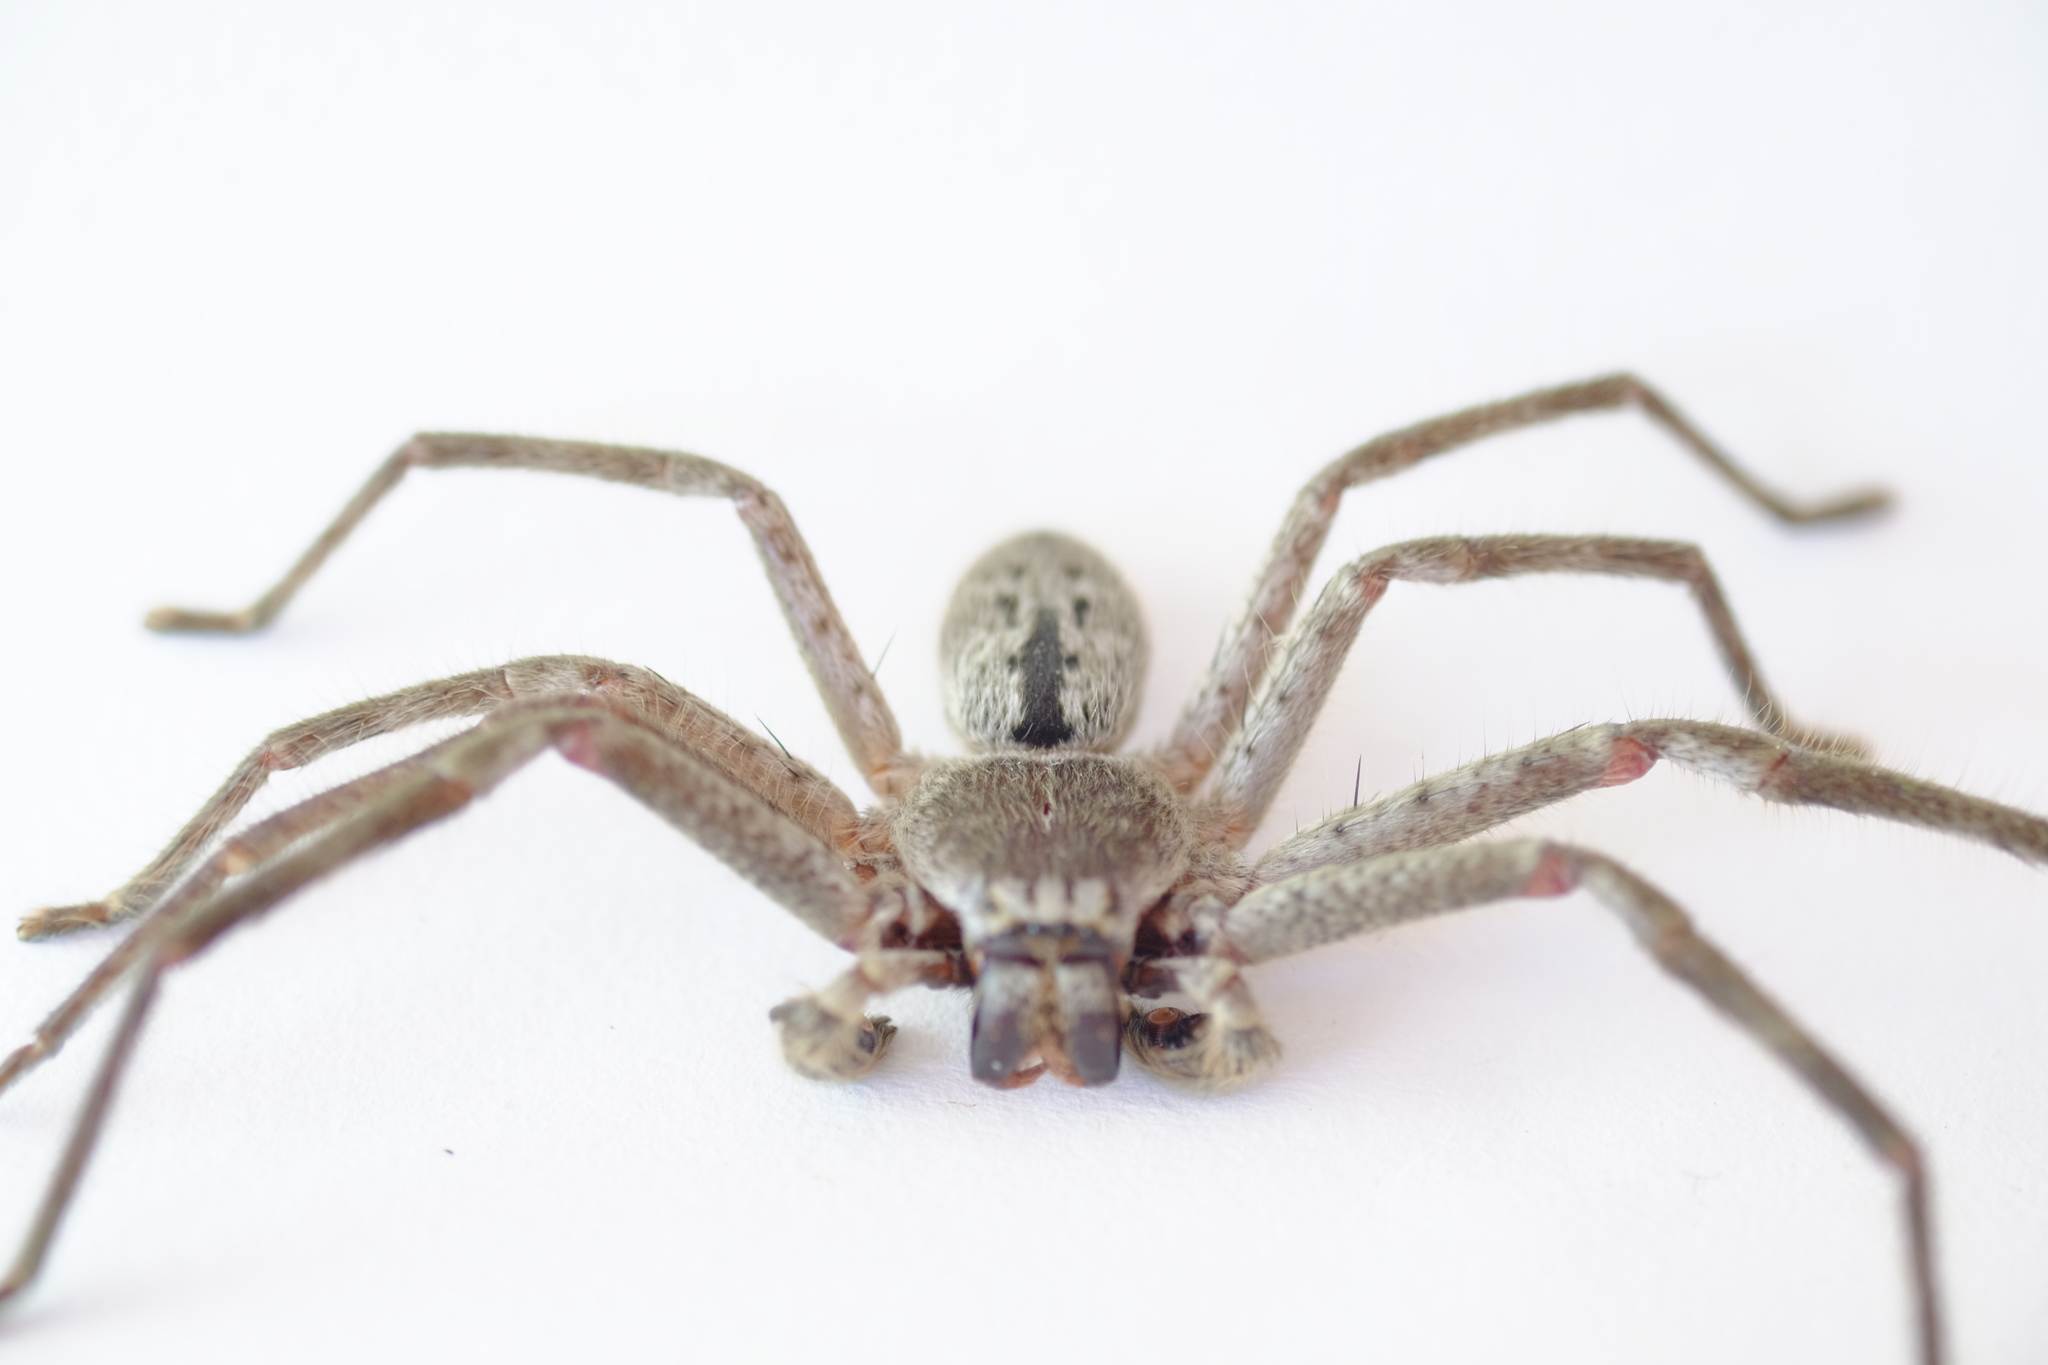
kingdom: Animalia
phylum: Arthropoda
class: Arachnida
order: Araneae
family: Sparassidae
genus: Isopeda
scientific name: Isopeda montana
